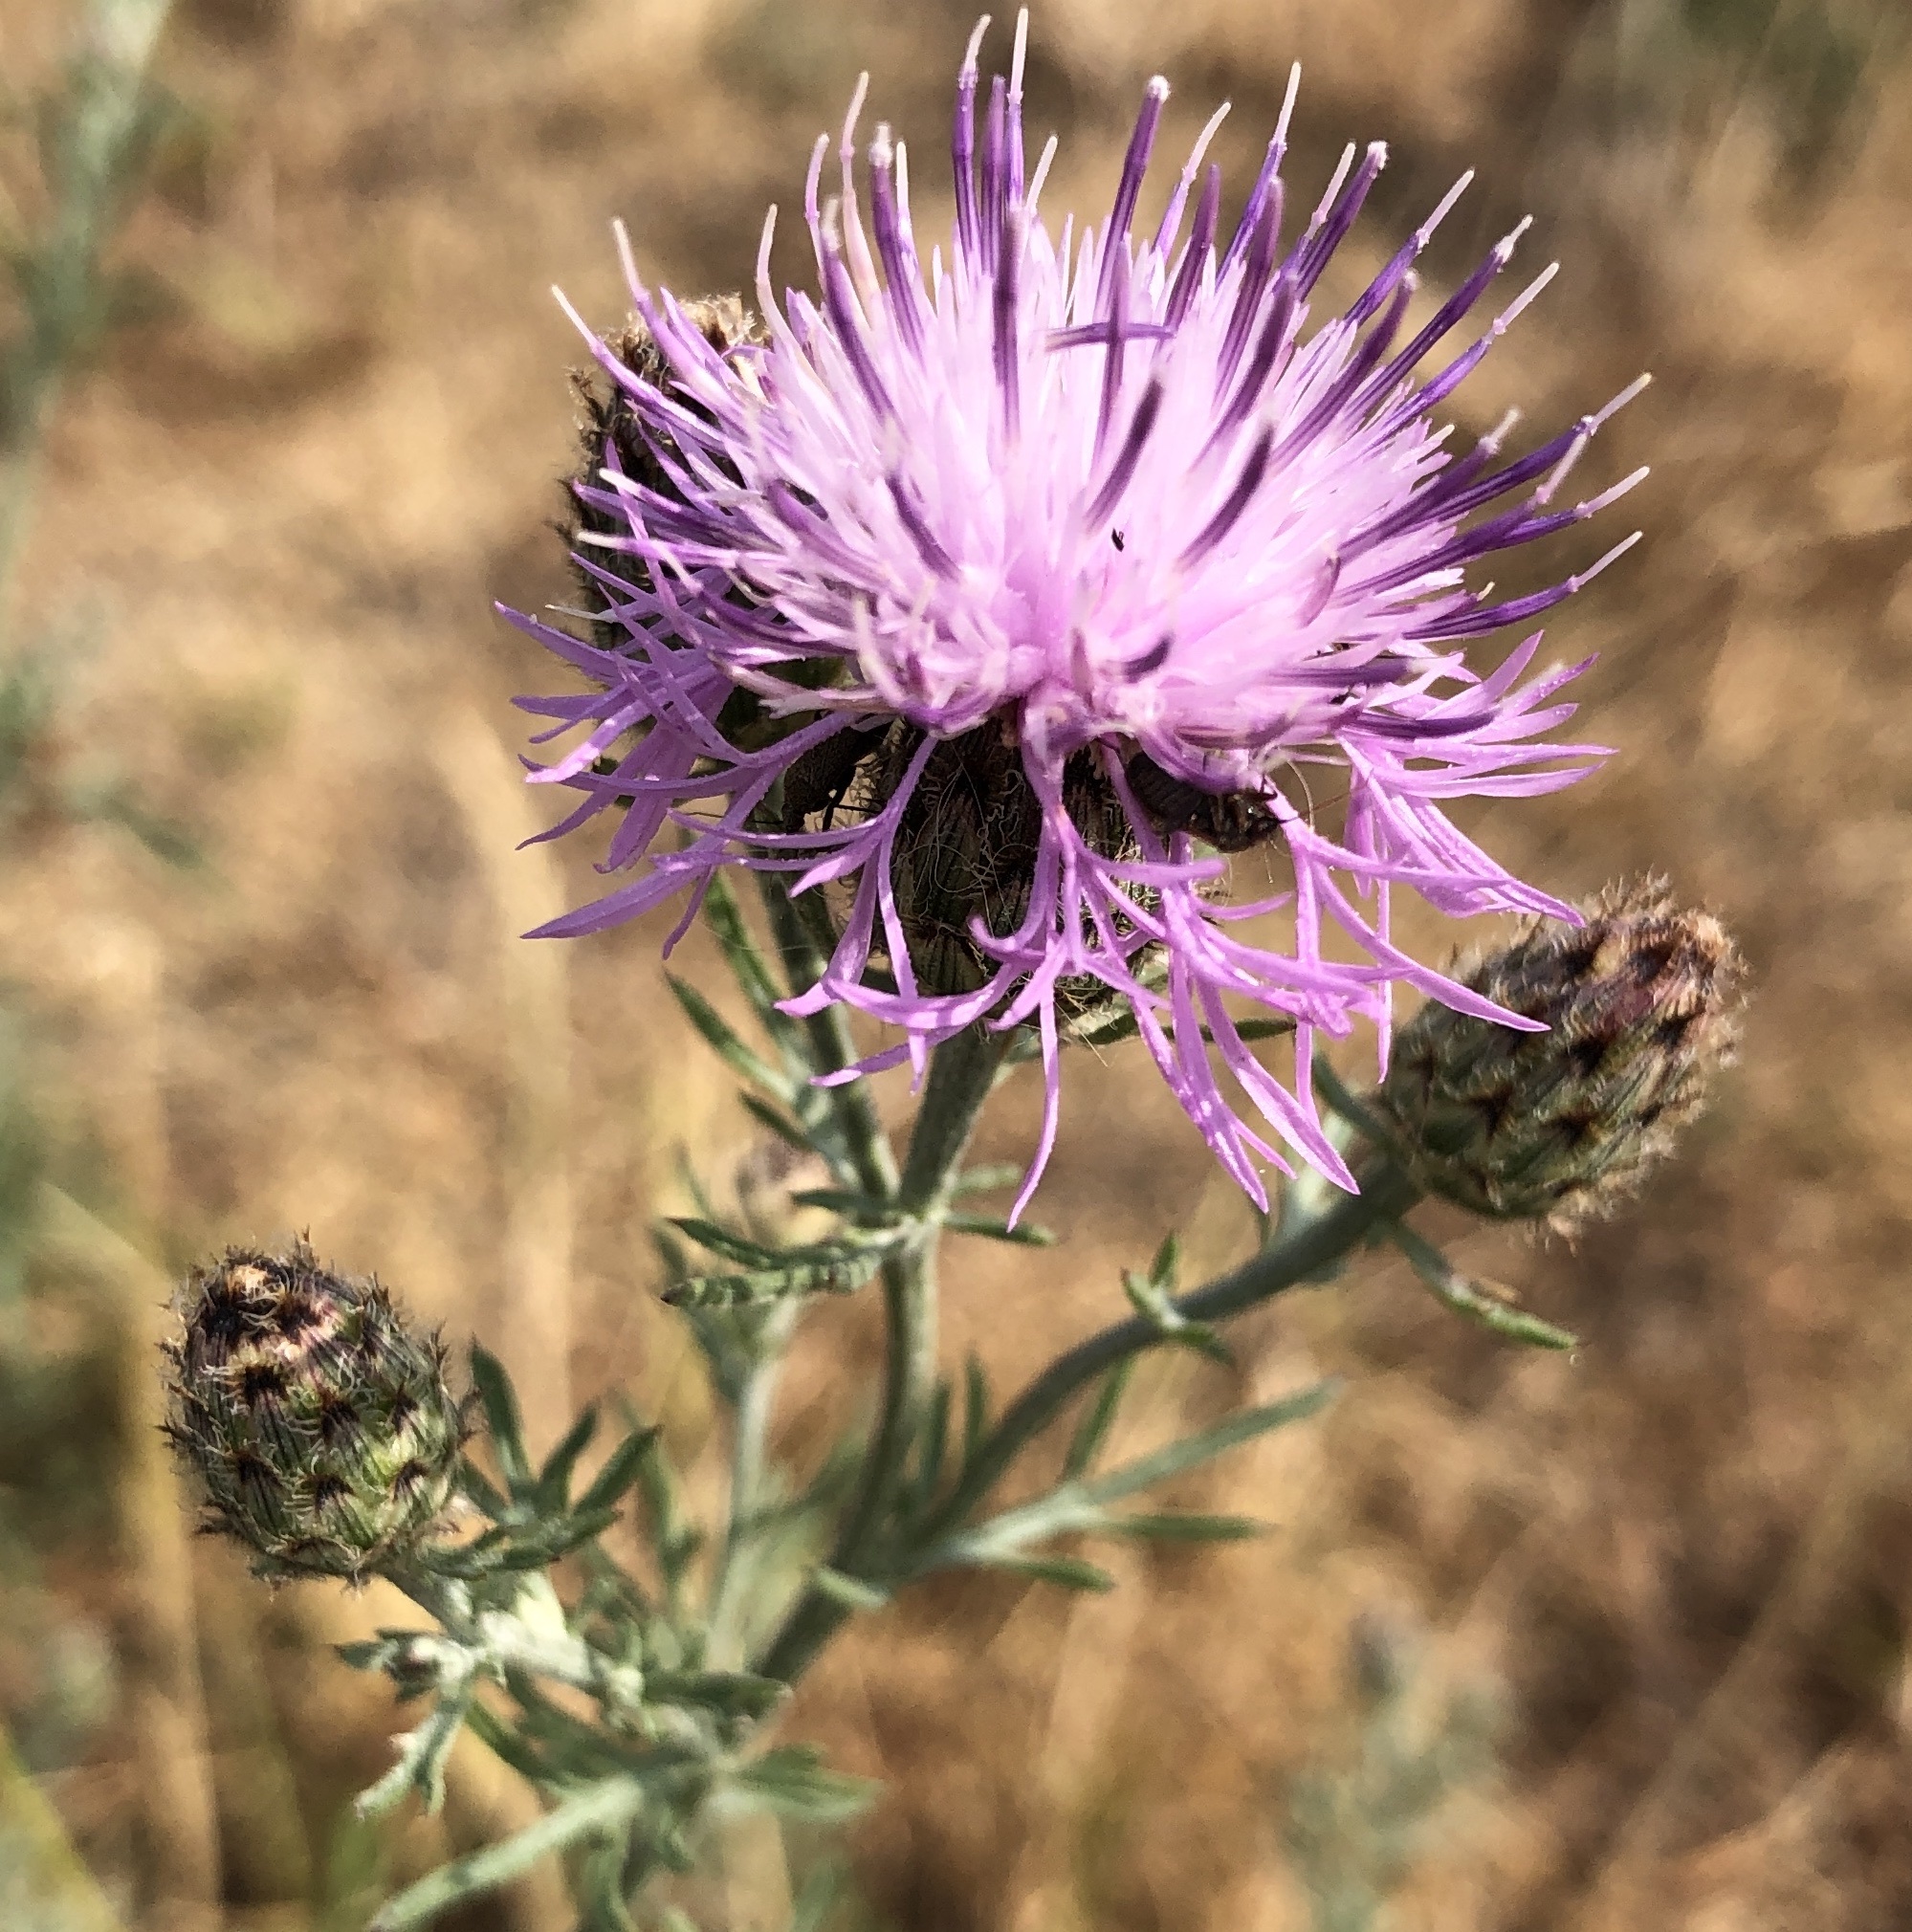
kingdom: Plantae
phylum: Tracheophyta
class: Magnoliopsida
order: Asterales
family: Asteraceae
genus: Centaurea
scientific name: Centaurea stoebe
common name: Spotted knapweed
